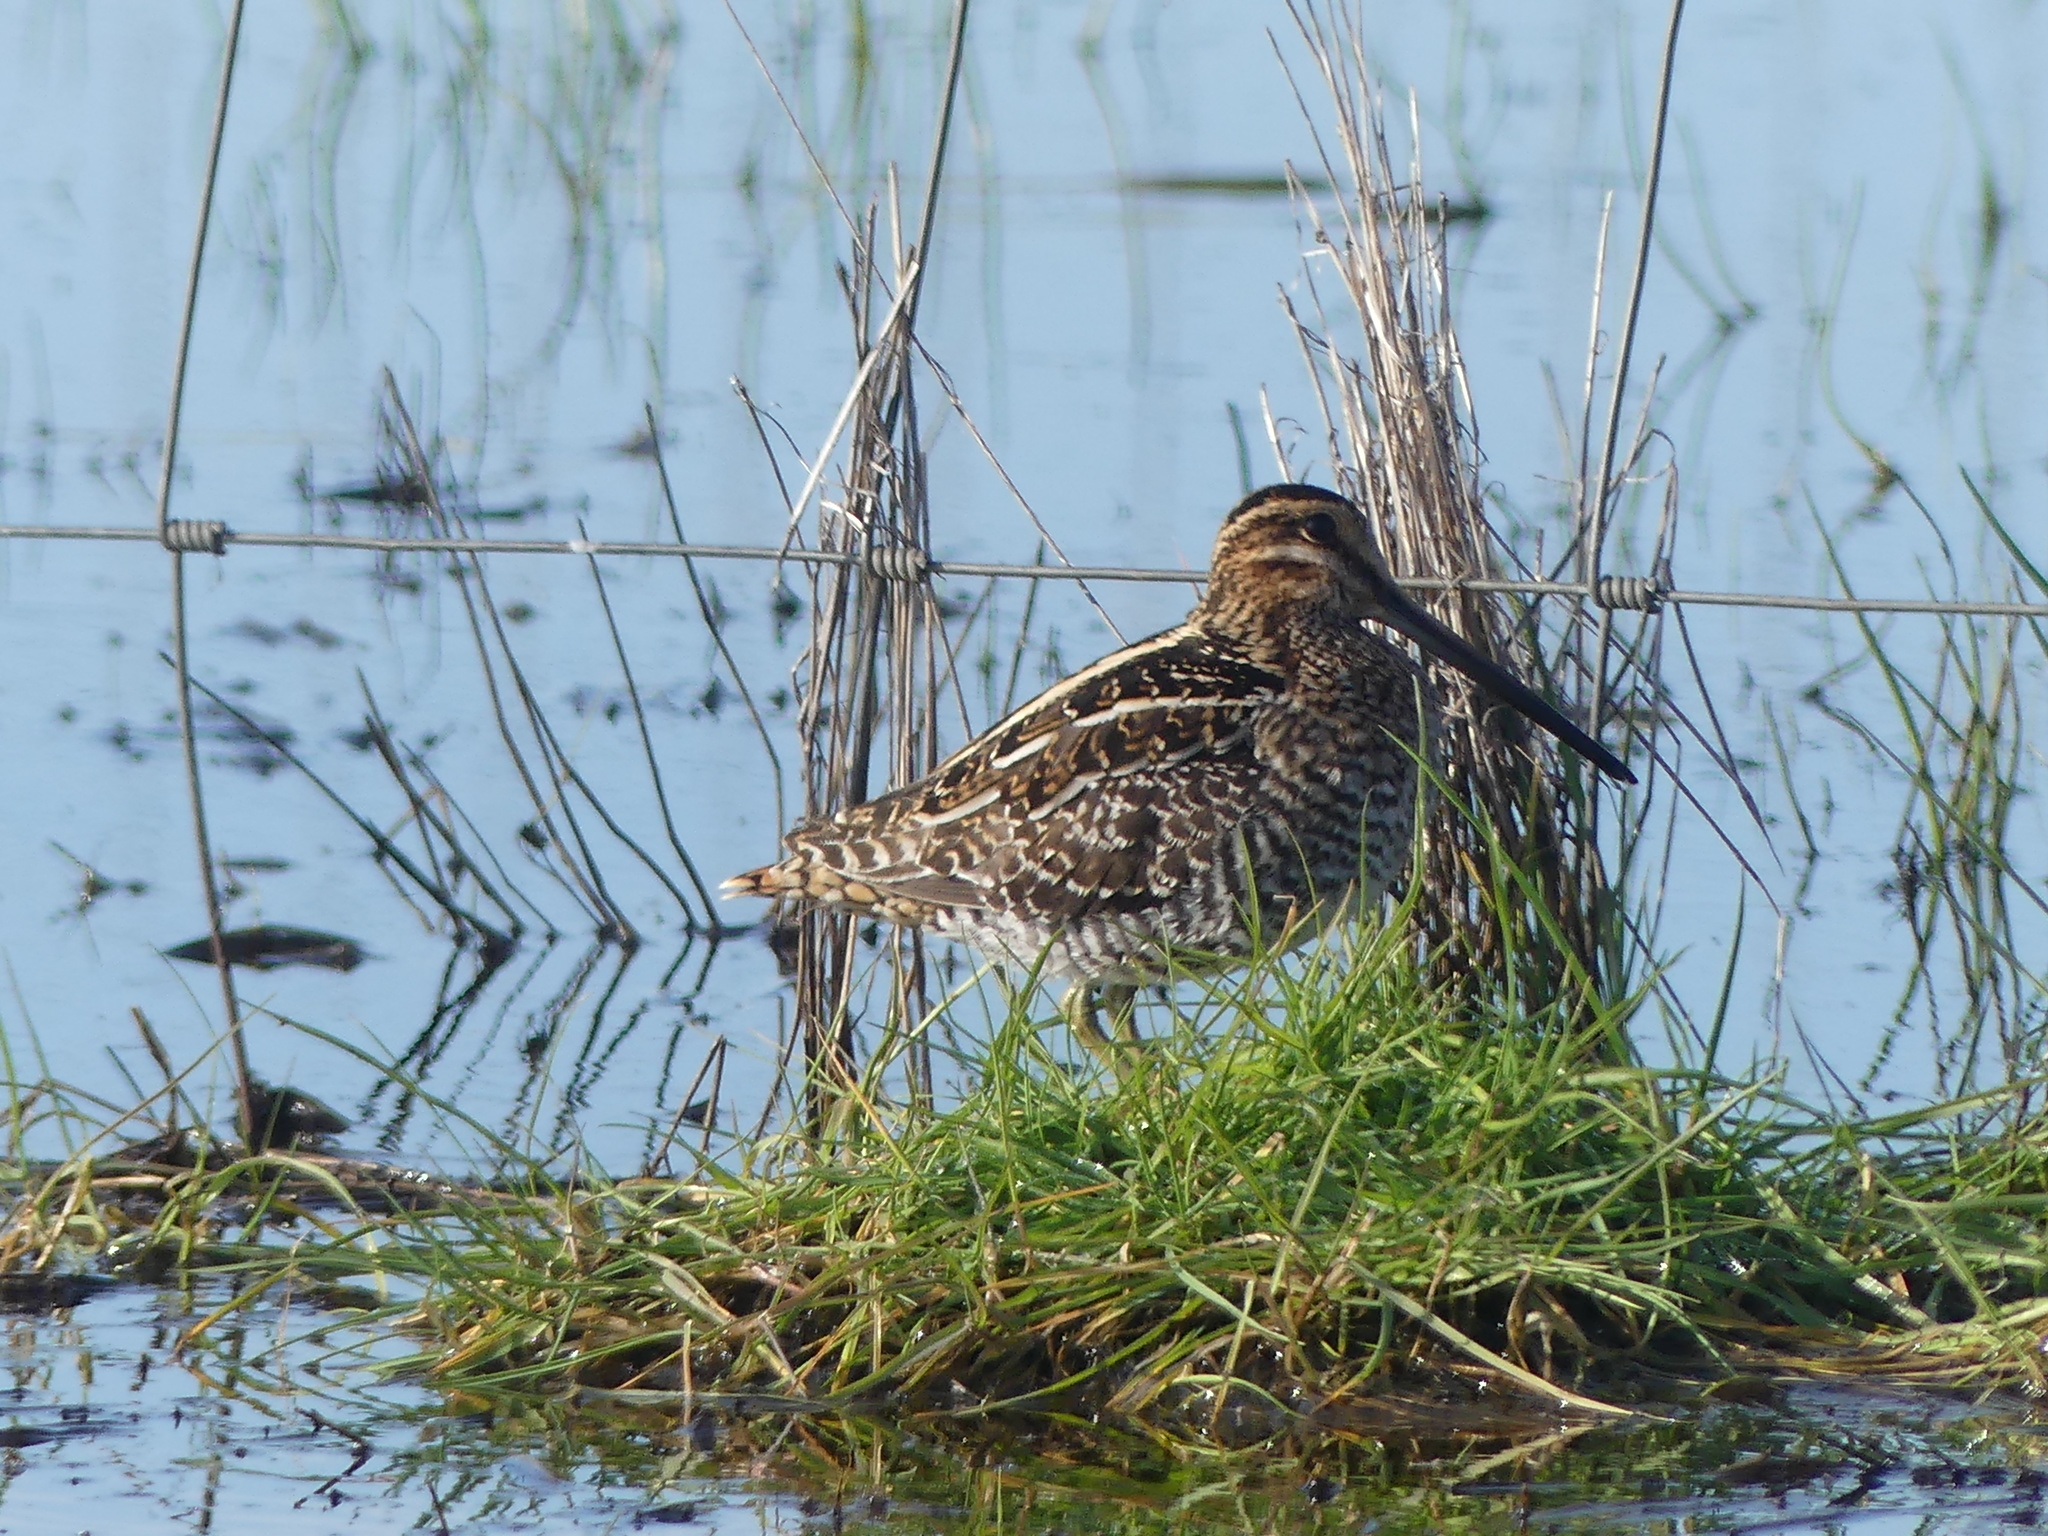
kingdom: Animalia
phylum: Chordata
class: Aves
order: Charadriiformes
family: Scolopacidae
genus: Gallinago
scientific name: Gallinago delicata
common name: Wilson's snipe
